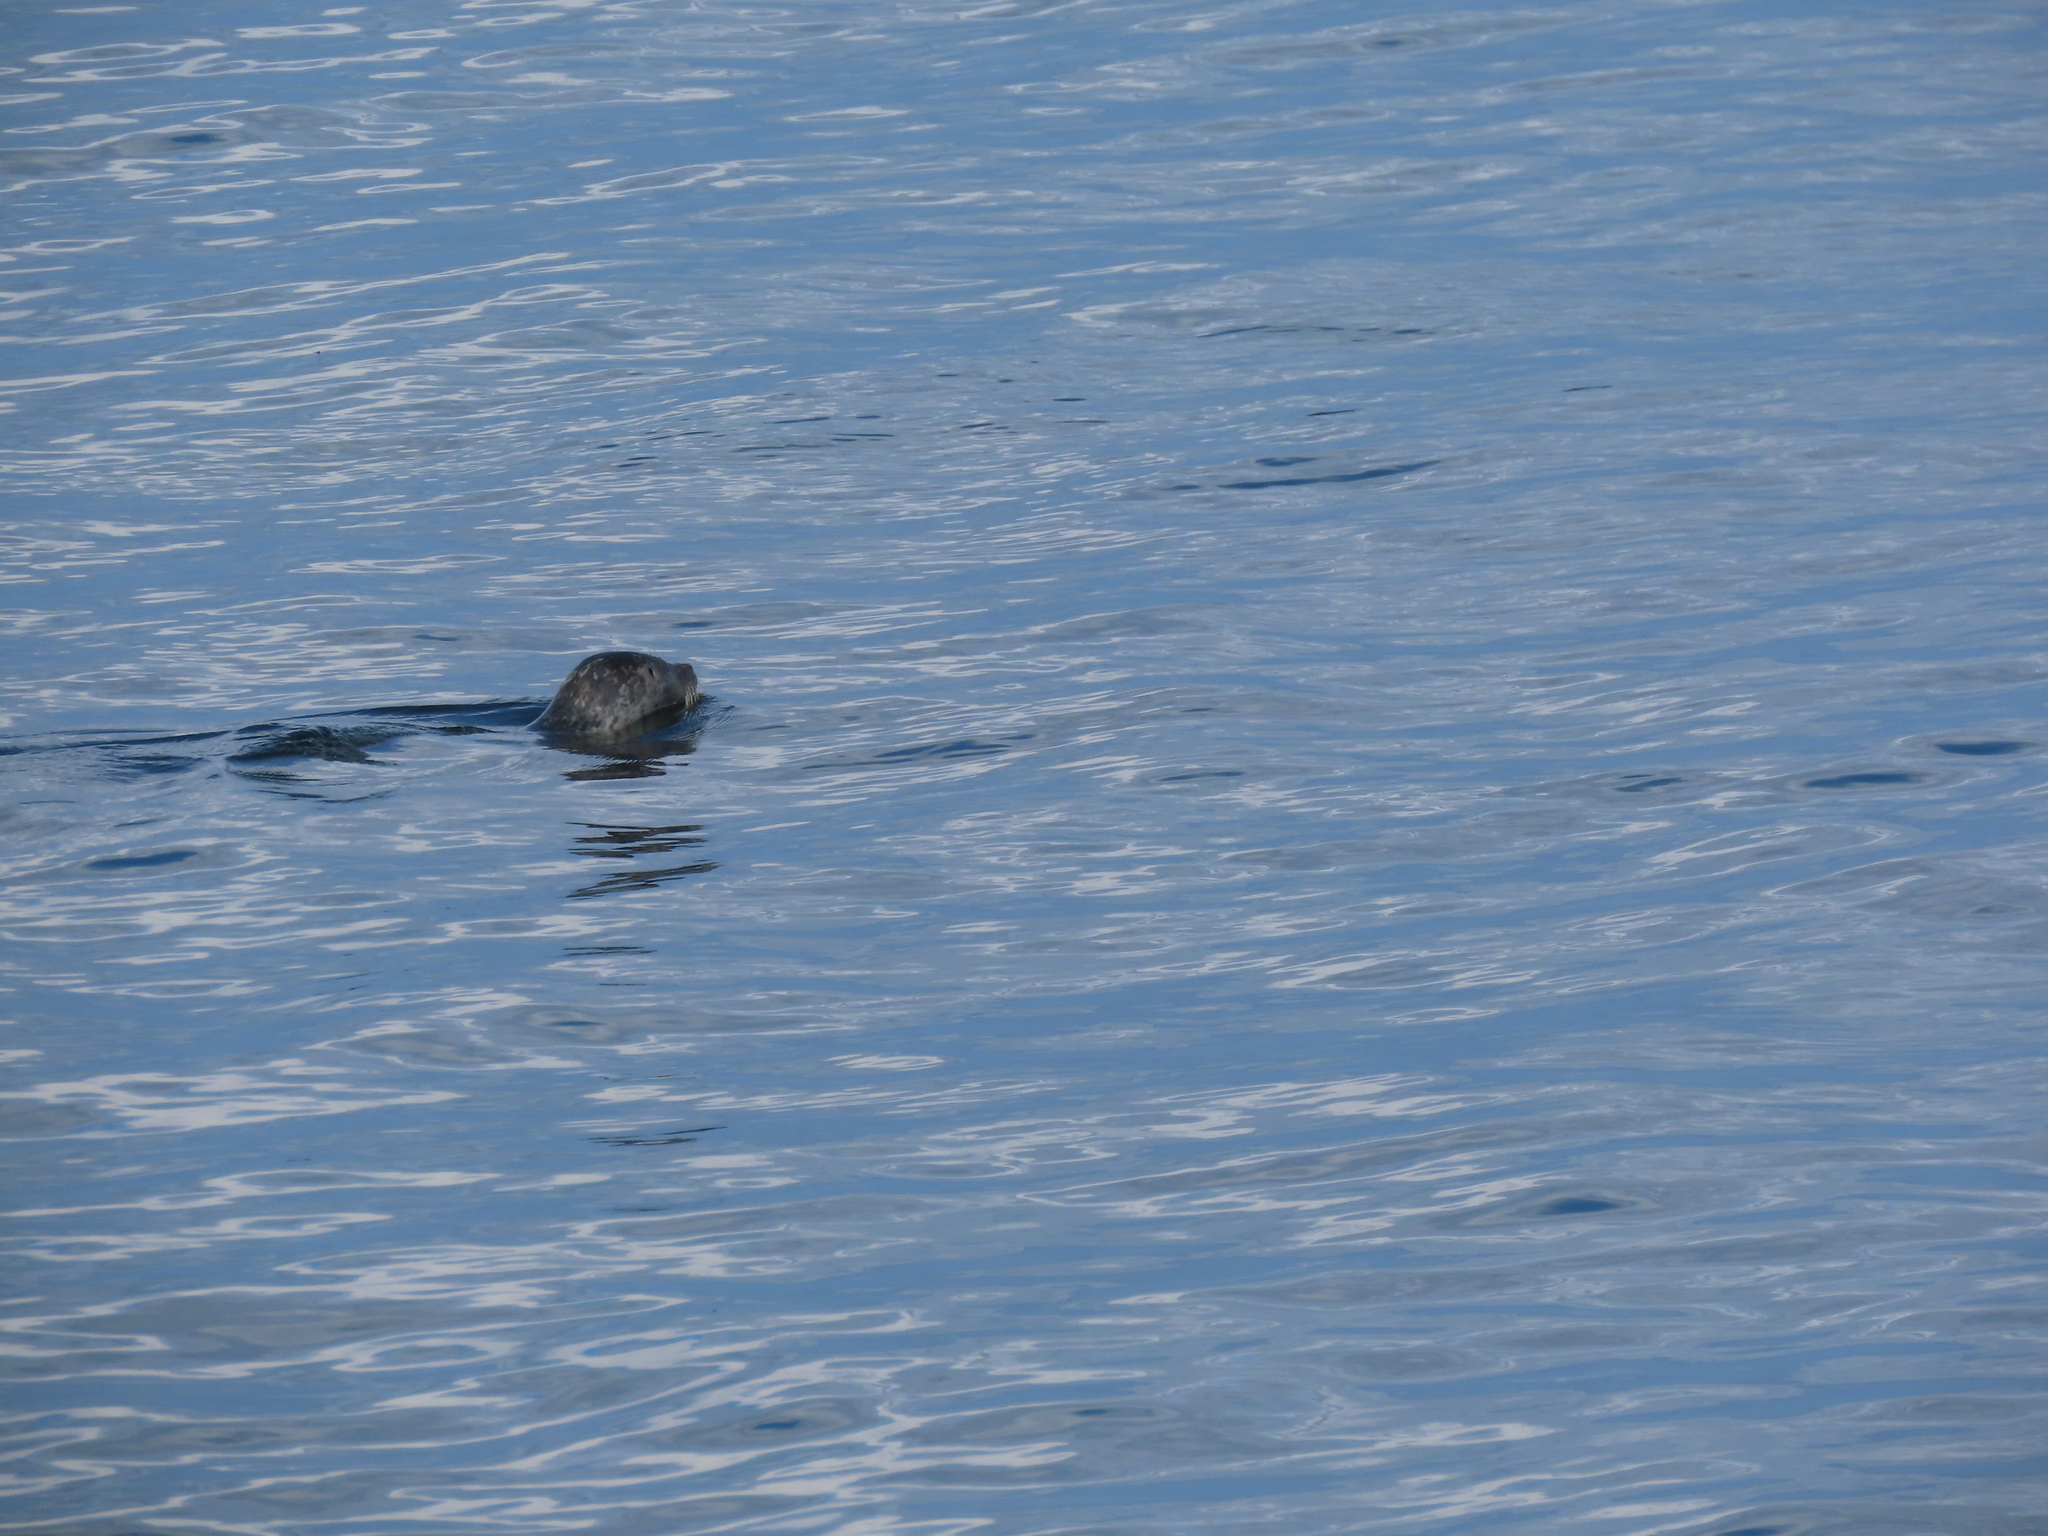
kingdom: Animalia
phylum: Chordata
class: Mammalia
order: Carnivora
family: Phocidae
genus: Phoca
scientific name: Phoca vitulina
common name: Harbor seal
